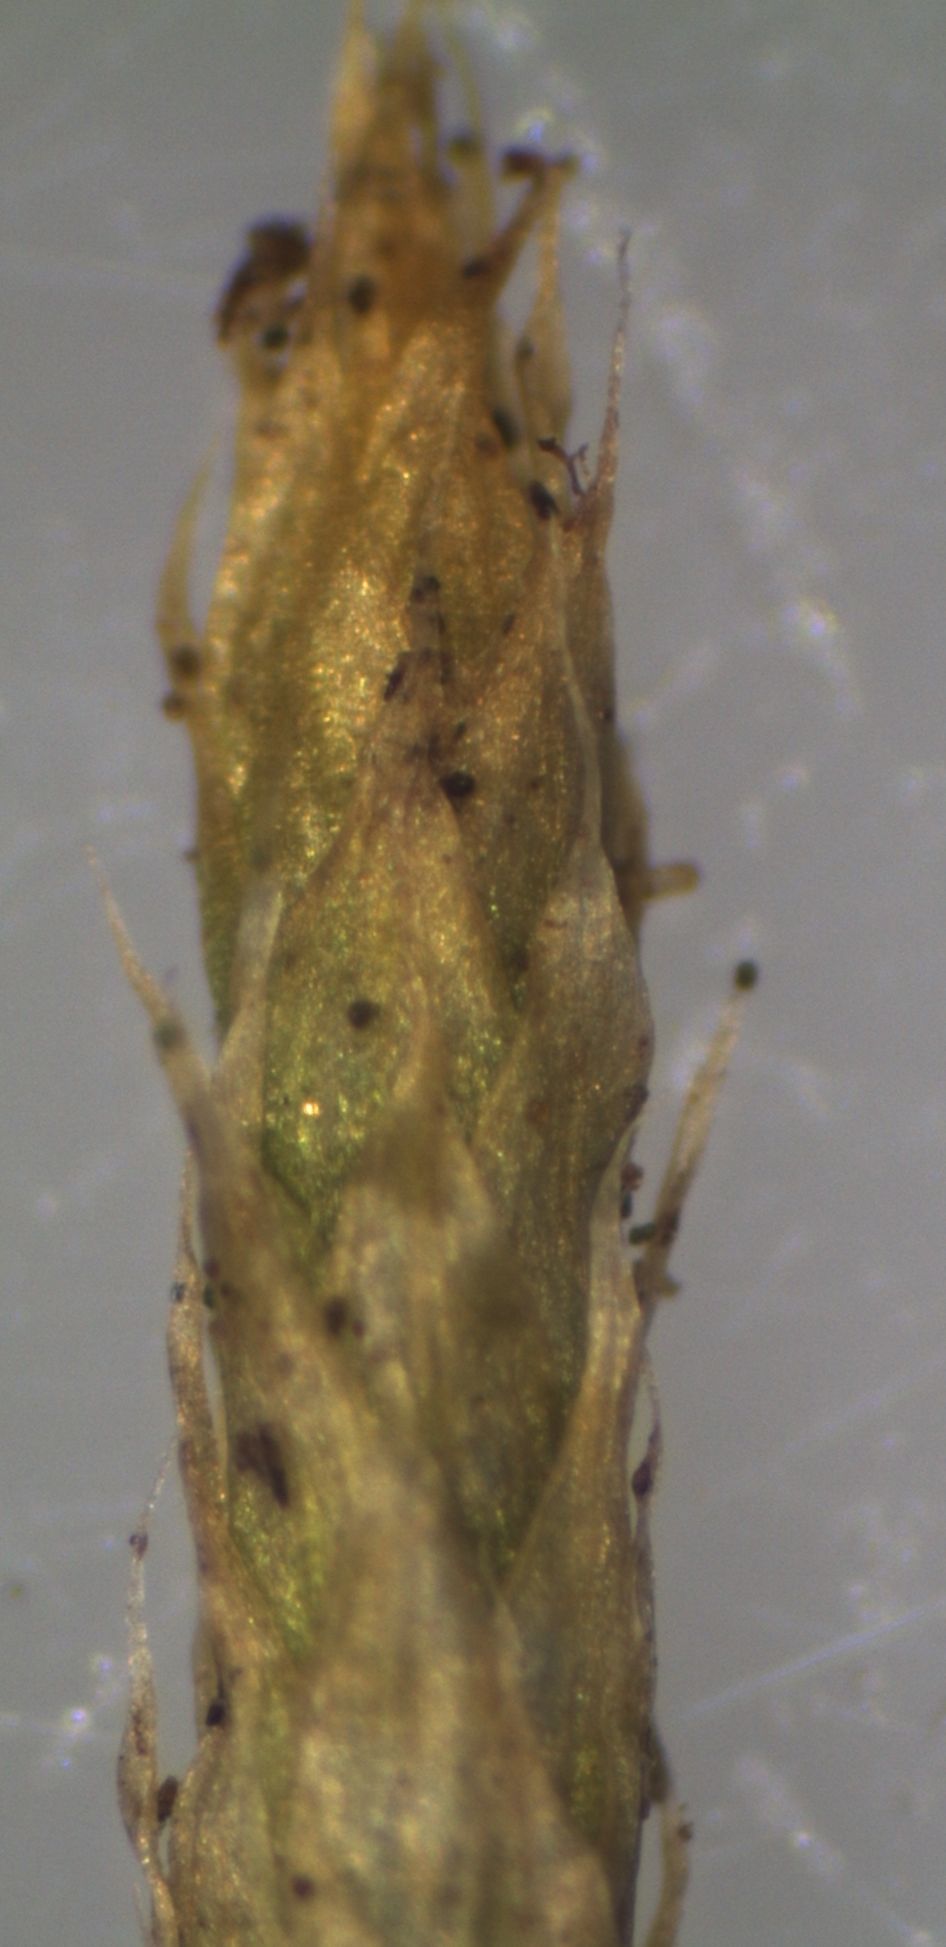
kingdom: Plantae
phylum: Bryophyta
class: Bryopsida
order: Hypnales
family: Brachytheciaceae
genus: Brachythecium
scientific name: Brachythecium albicans
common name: Whitish ragged moss
